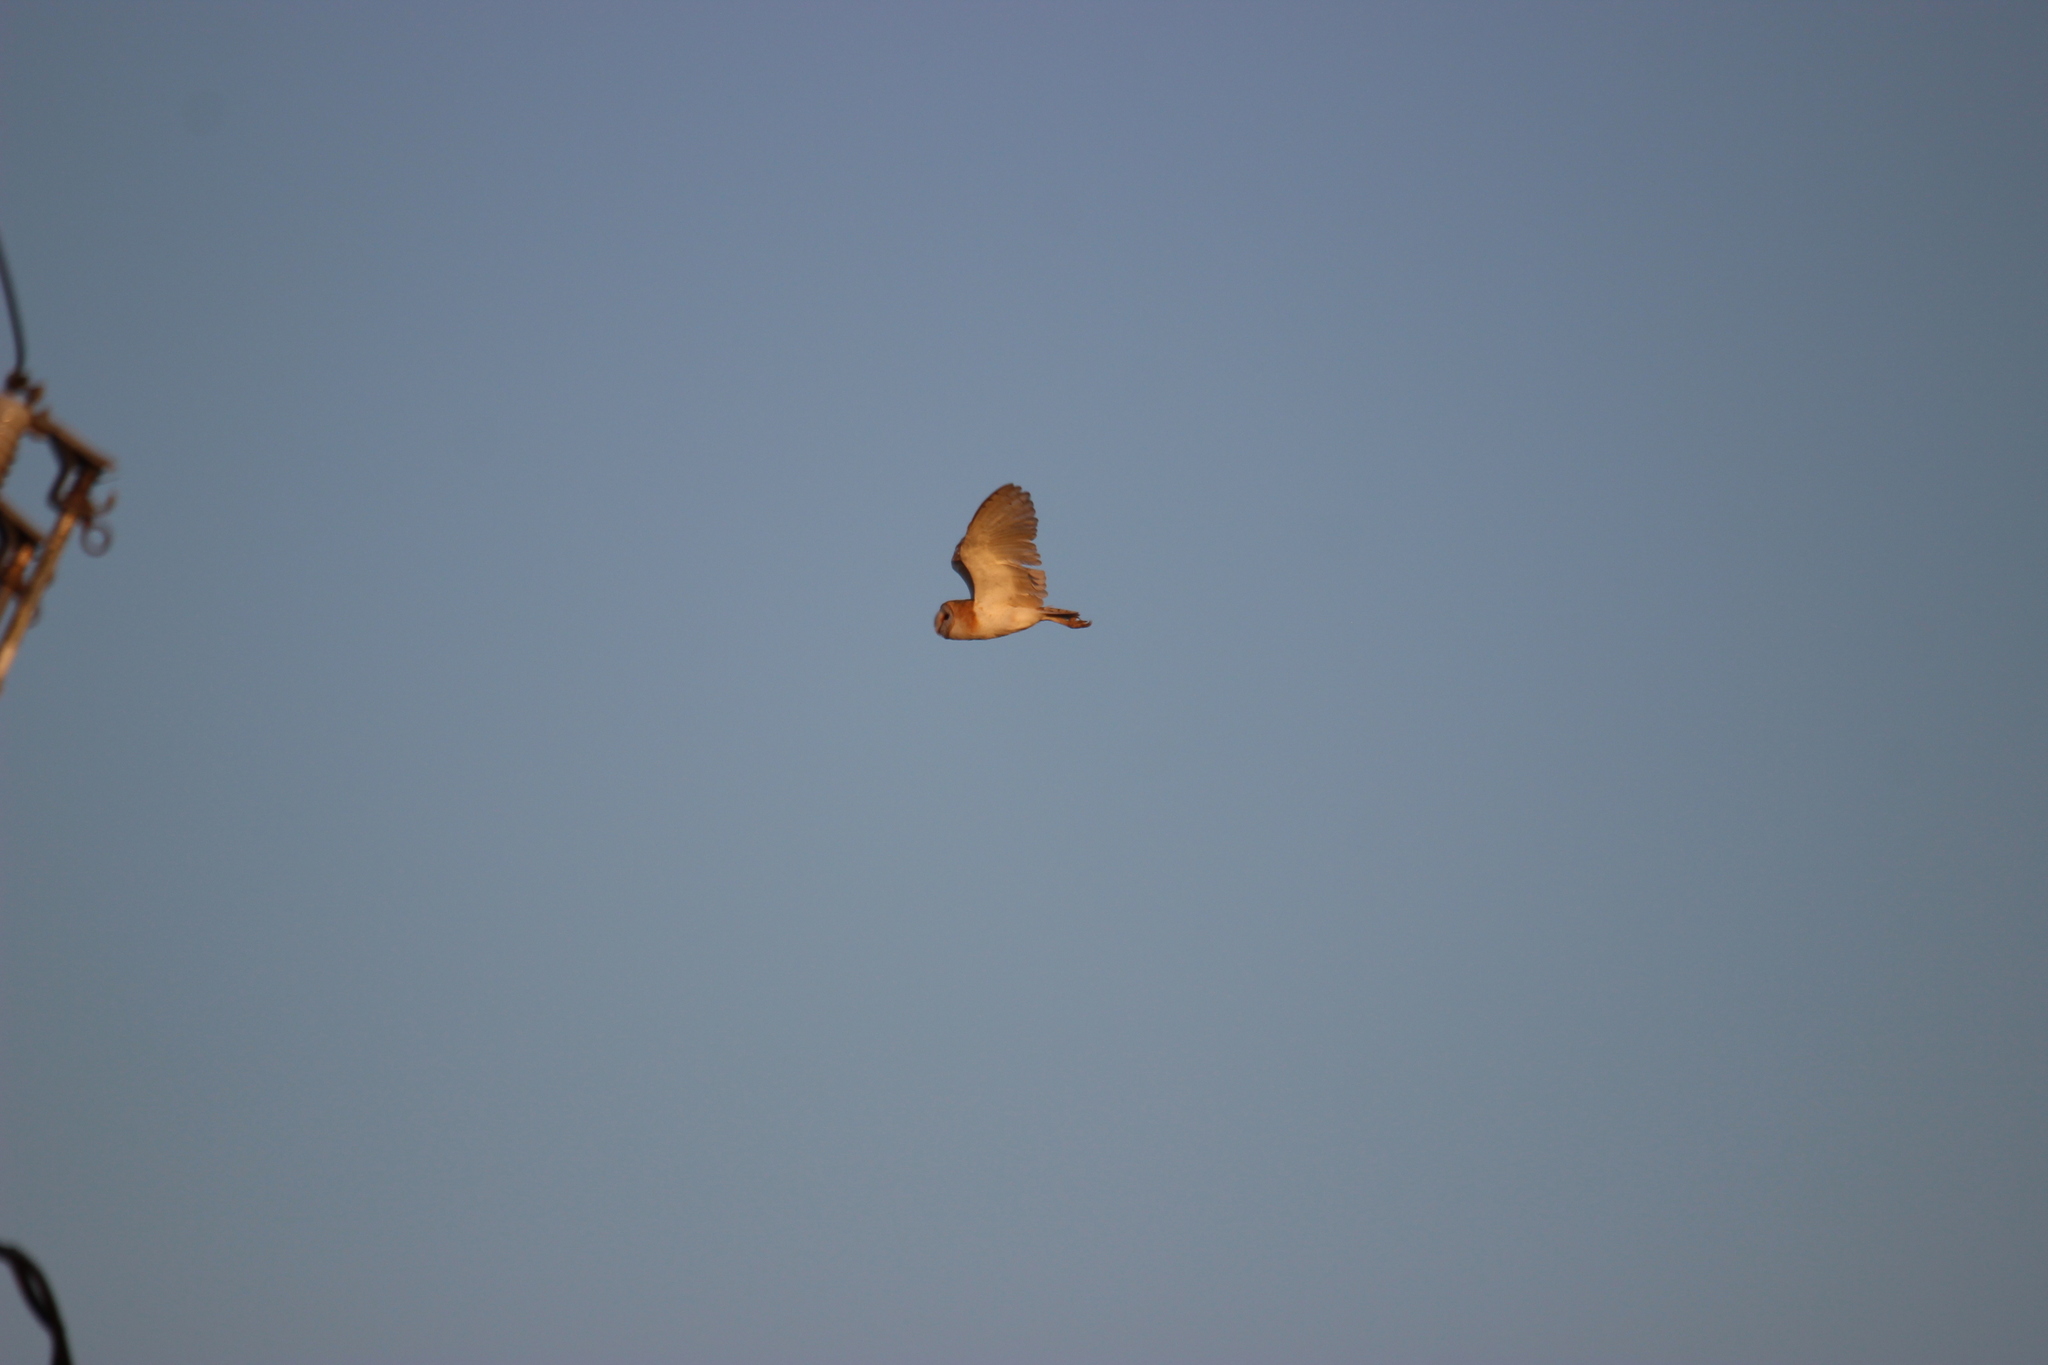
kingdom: Animalia
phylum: Chordata
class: Aves
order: Strigiformes
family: Tytonidae
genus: Tyto
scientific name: Tyto alba
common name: Barn owl
